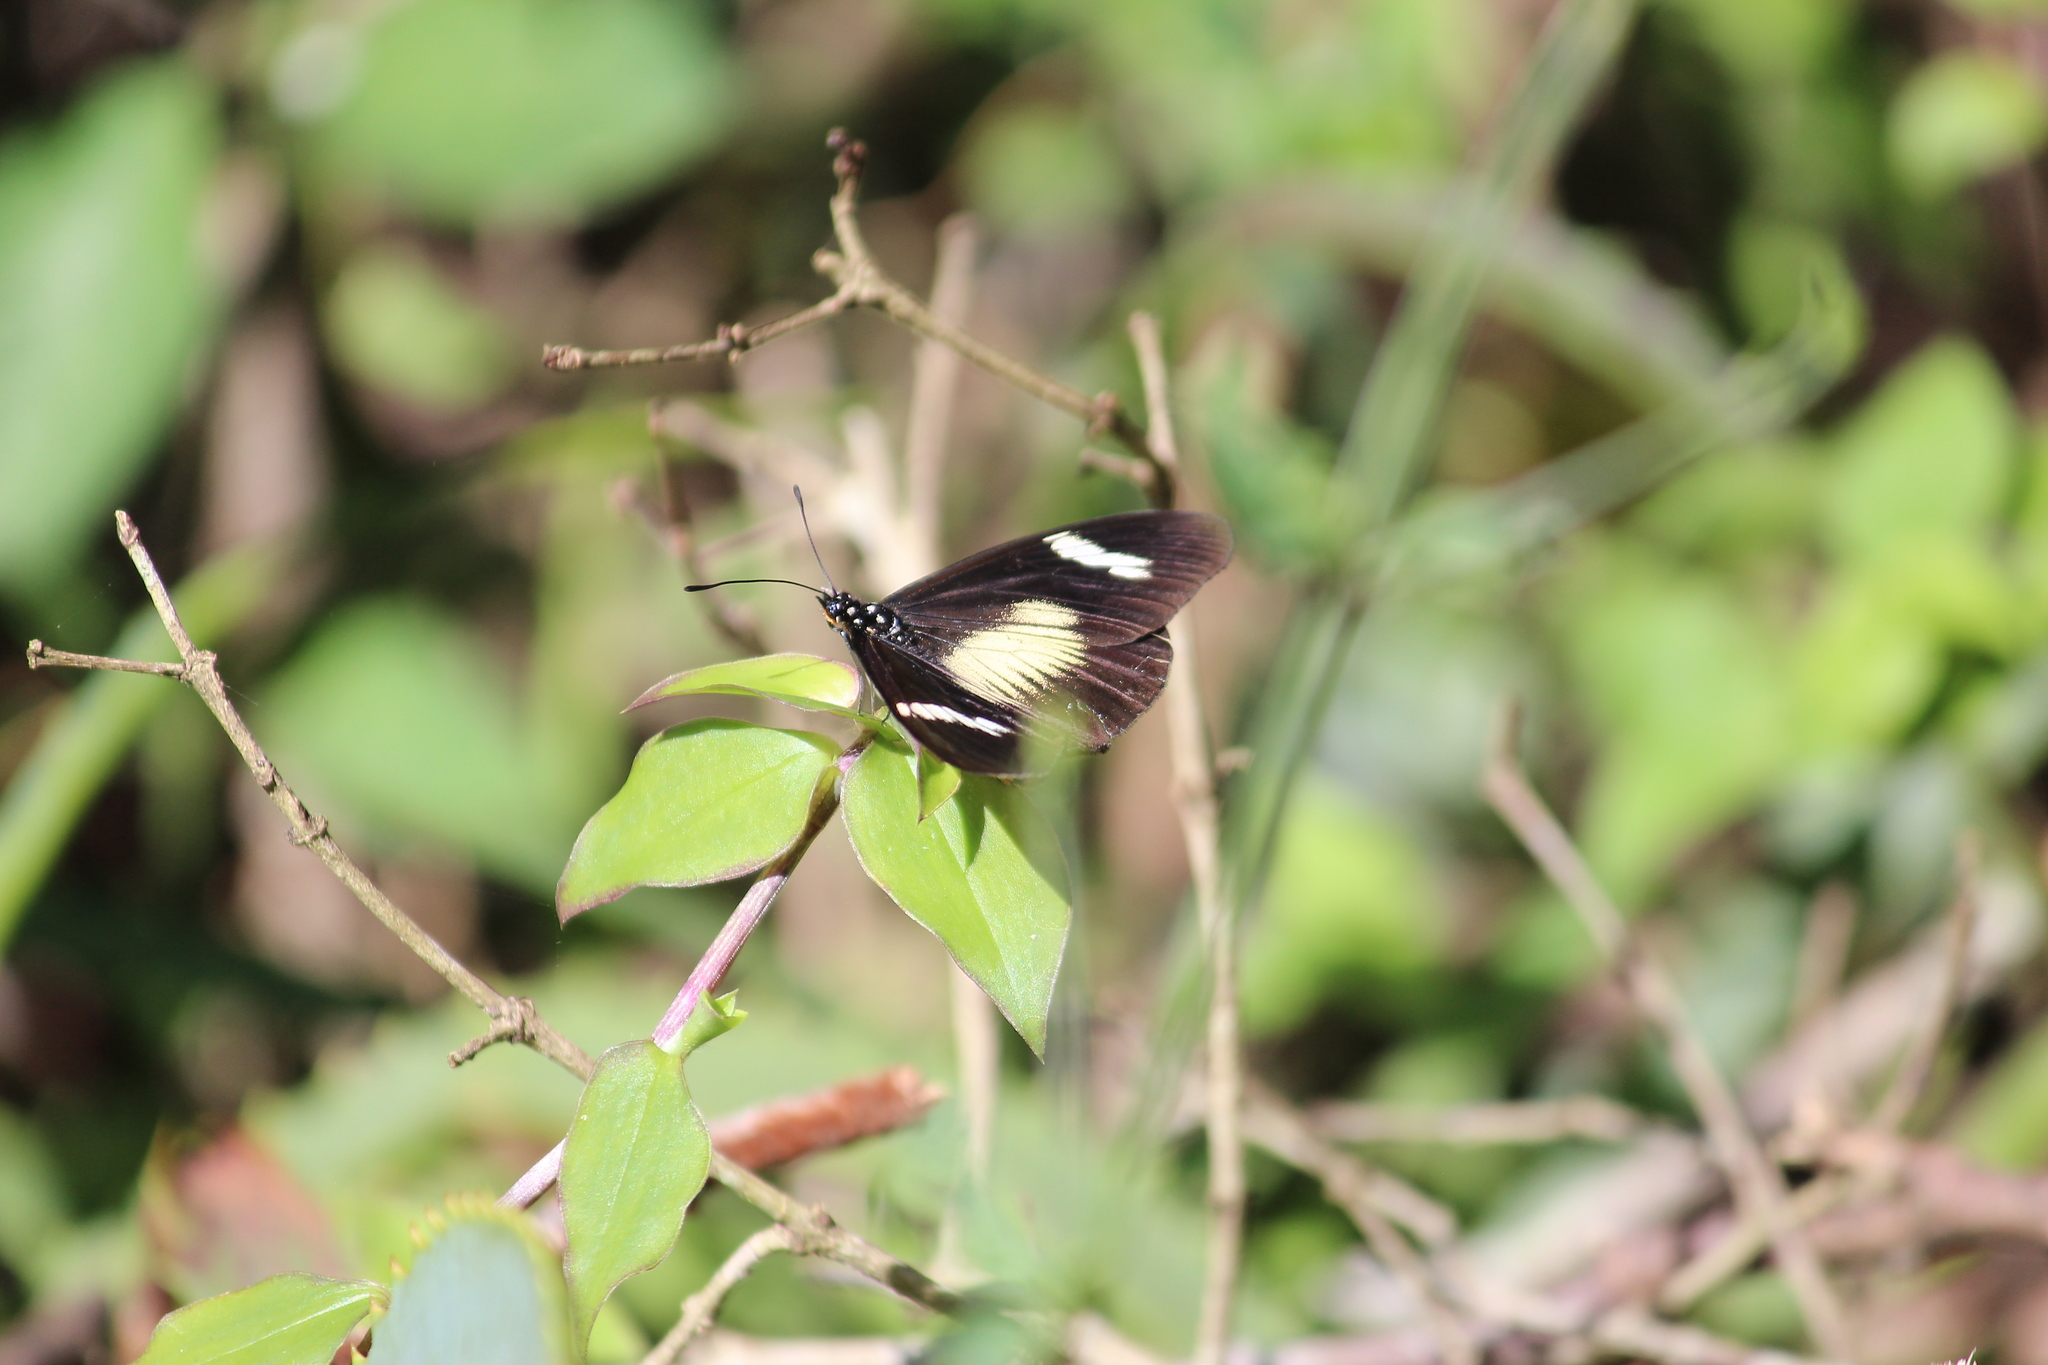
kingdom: Animalia
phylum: Arthropoda
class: Insecta
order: Lepidoptera
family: Nymphalidae
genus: Acraea
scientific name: Acraea esebria
